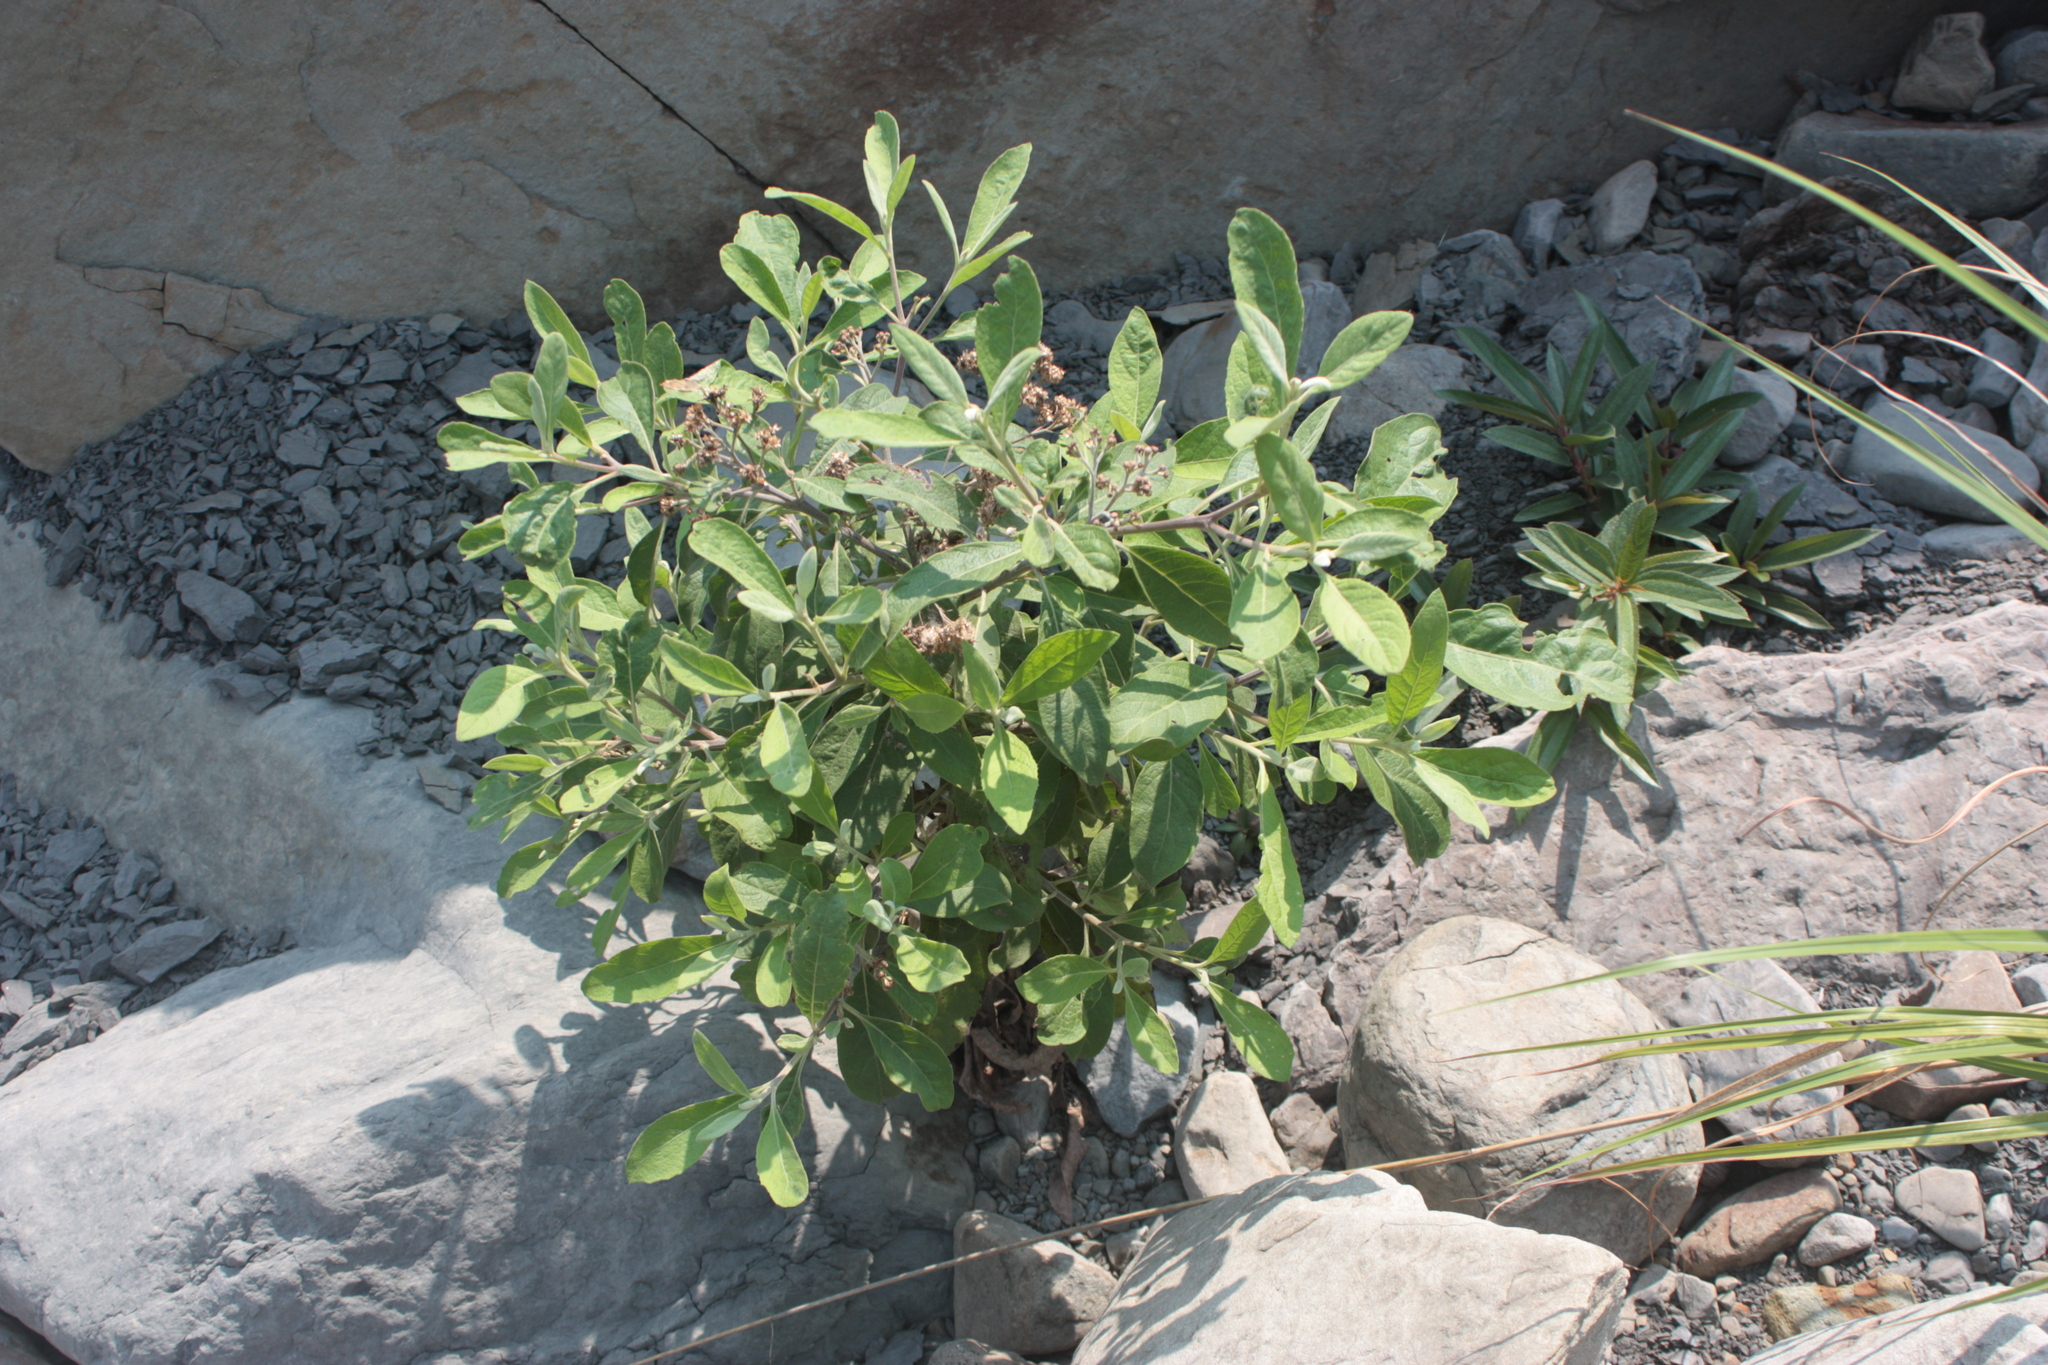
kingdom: Plantae
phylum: Tracheophyta
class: Magnoliopsida
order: Asterales
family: Asteraceae
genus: Pluchea
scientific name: Pluchea carolinensis
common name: Marsh fleabane
